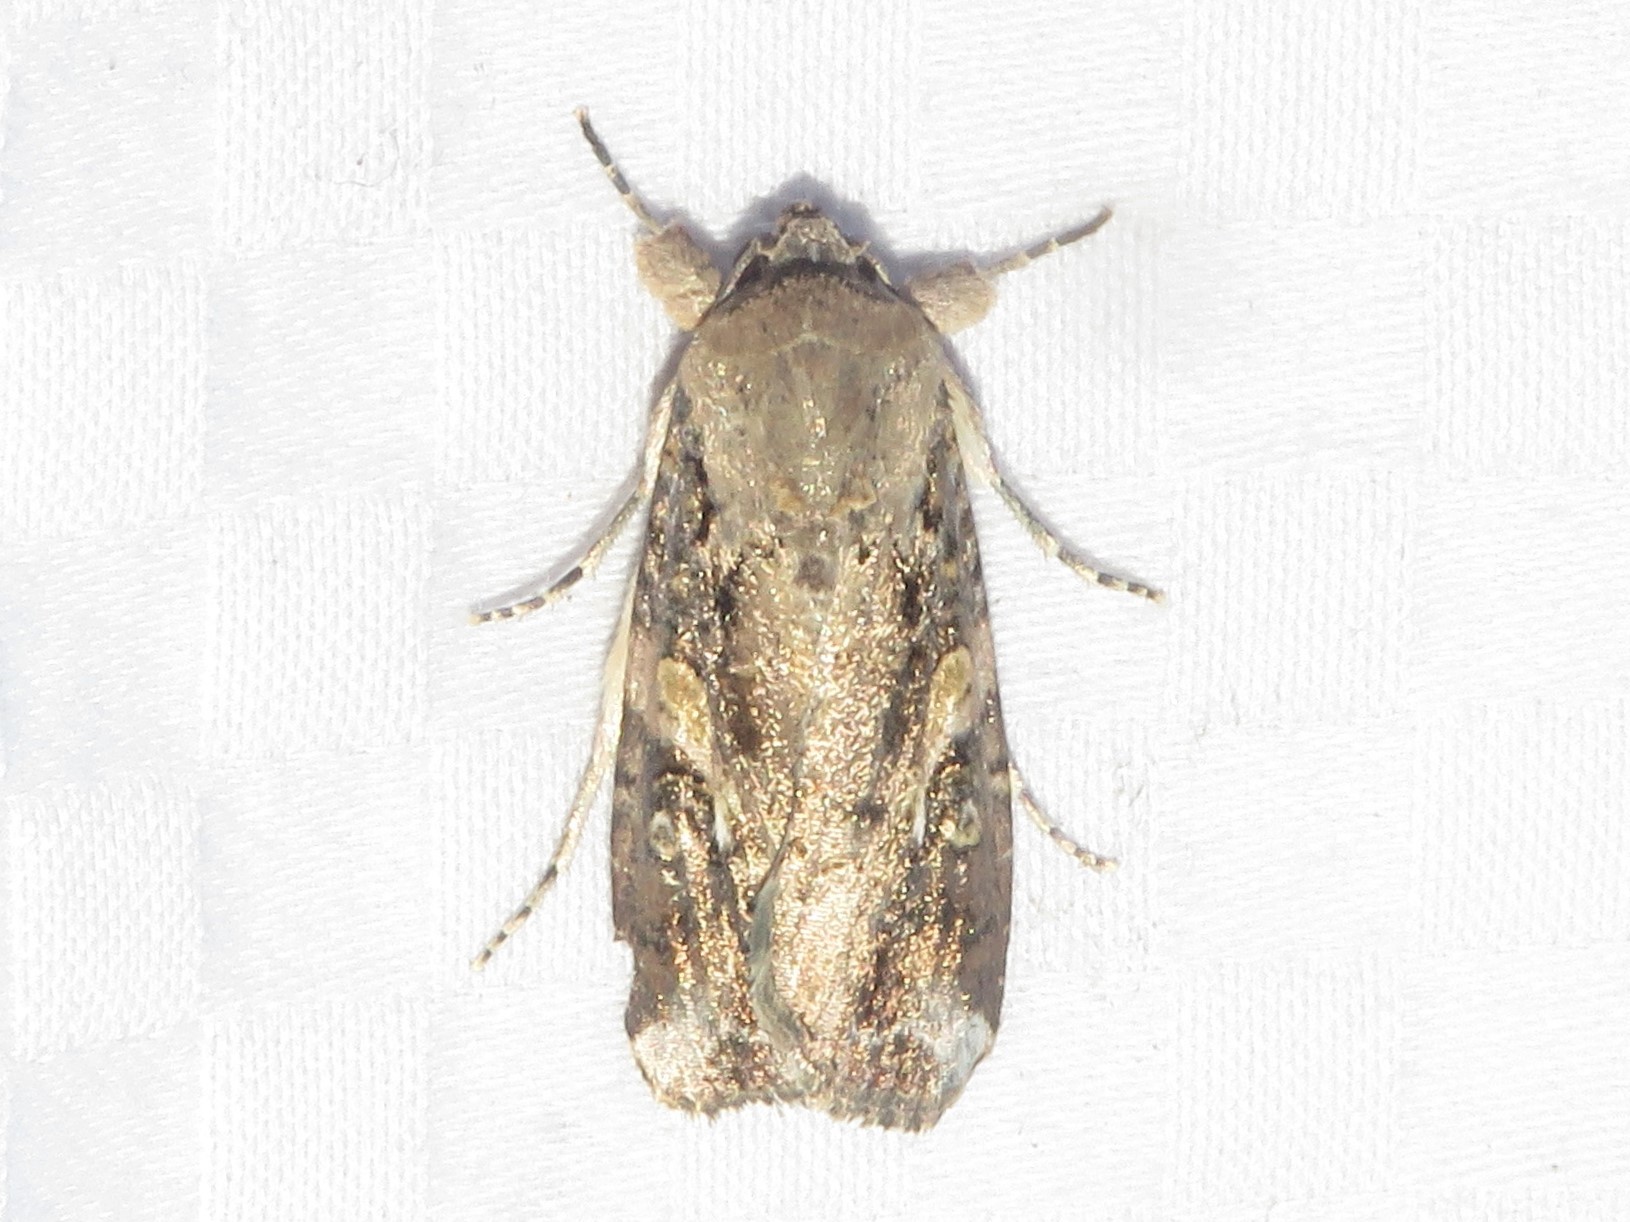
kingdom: Animalia
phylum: Arthropoda
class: Insecta
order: Lepidoptera
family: Noctuidae
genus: Spodoptera
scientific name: Spodoptera frugiperda
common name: Fall armyworm
